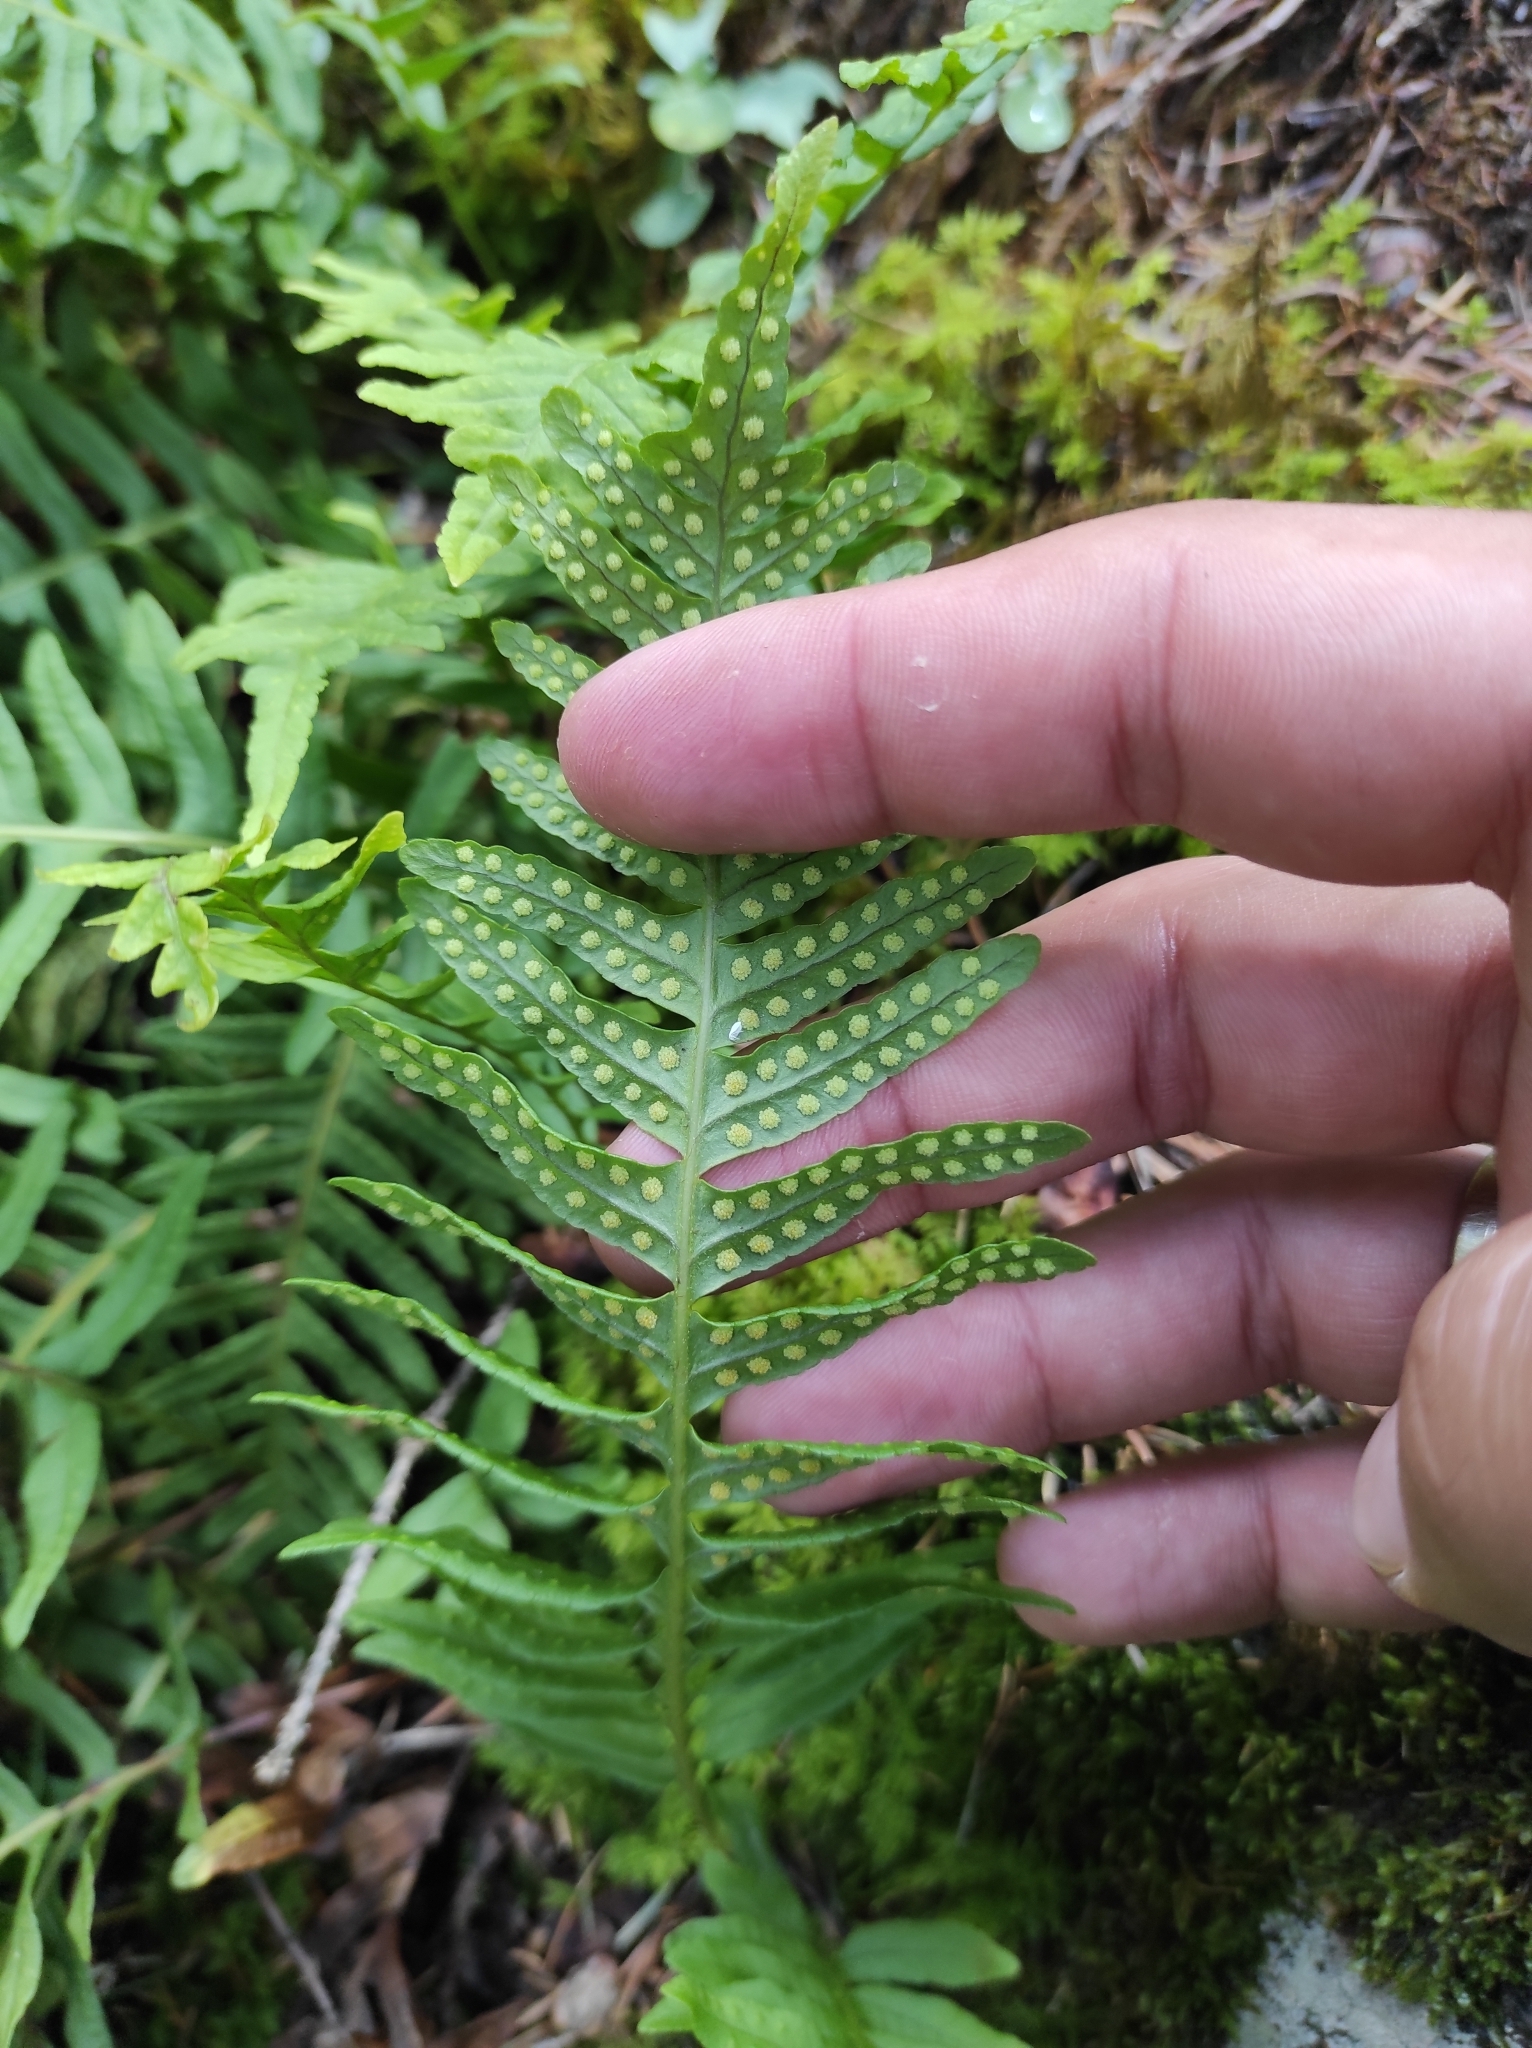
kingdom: Plantae
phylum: Tracheophyta
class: Polypodiopsida
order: Polypodiales
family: Polypodiaceae
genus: Polypodium
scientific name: Polypodium vulgare
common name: Common polypody
